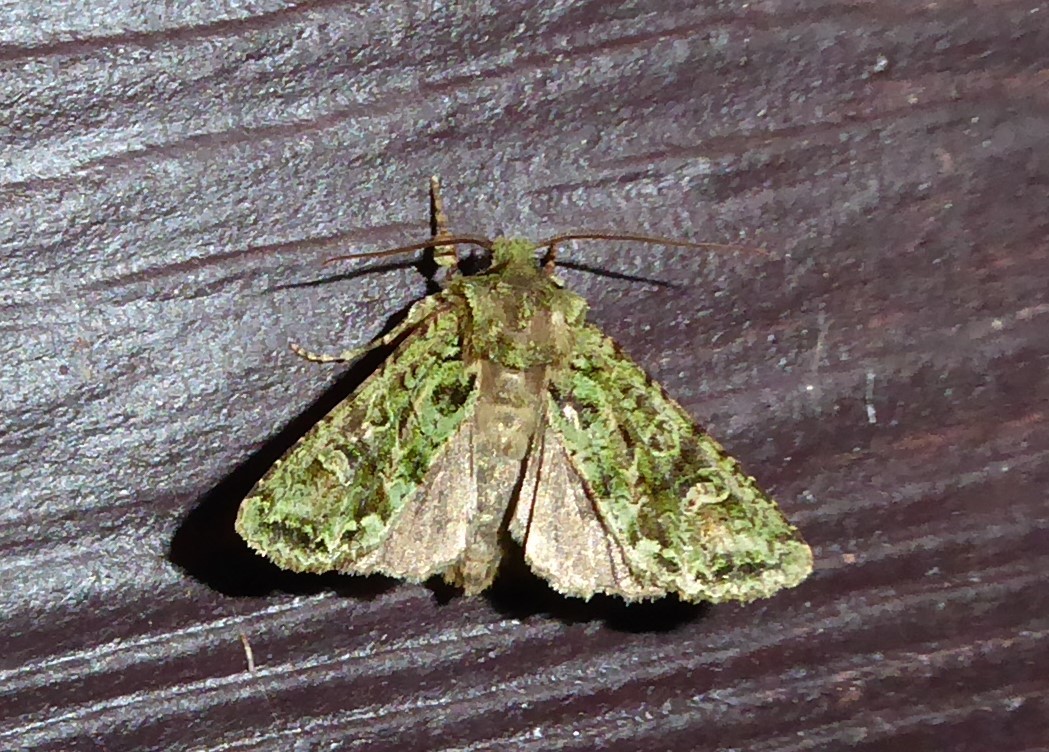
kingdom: Animalia
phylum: Arthropoda
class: Insecta
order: Lepidoptera
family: Noctuidae
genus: Ichneutica
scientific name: Ichneutica
